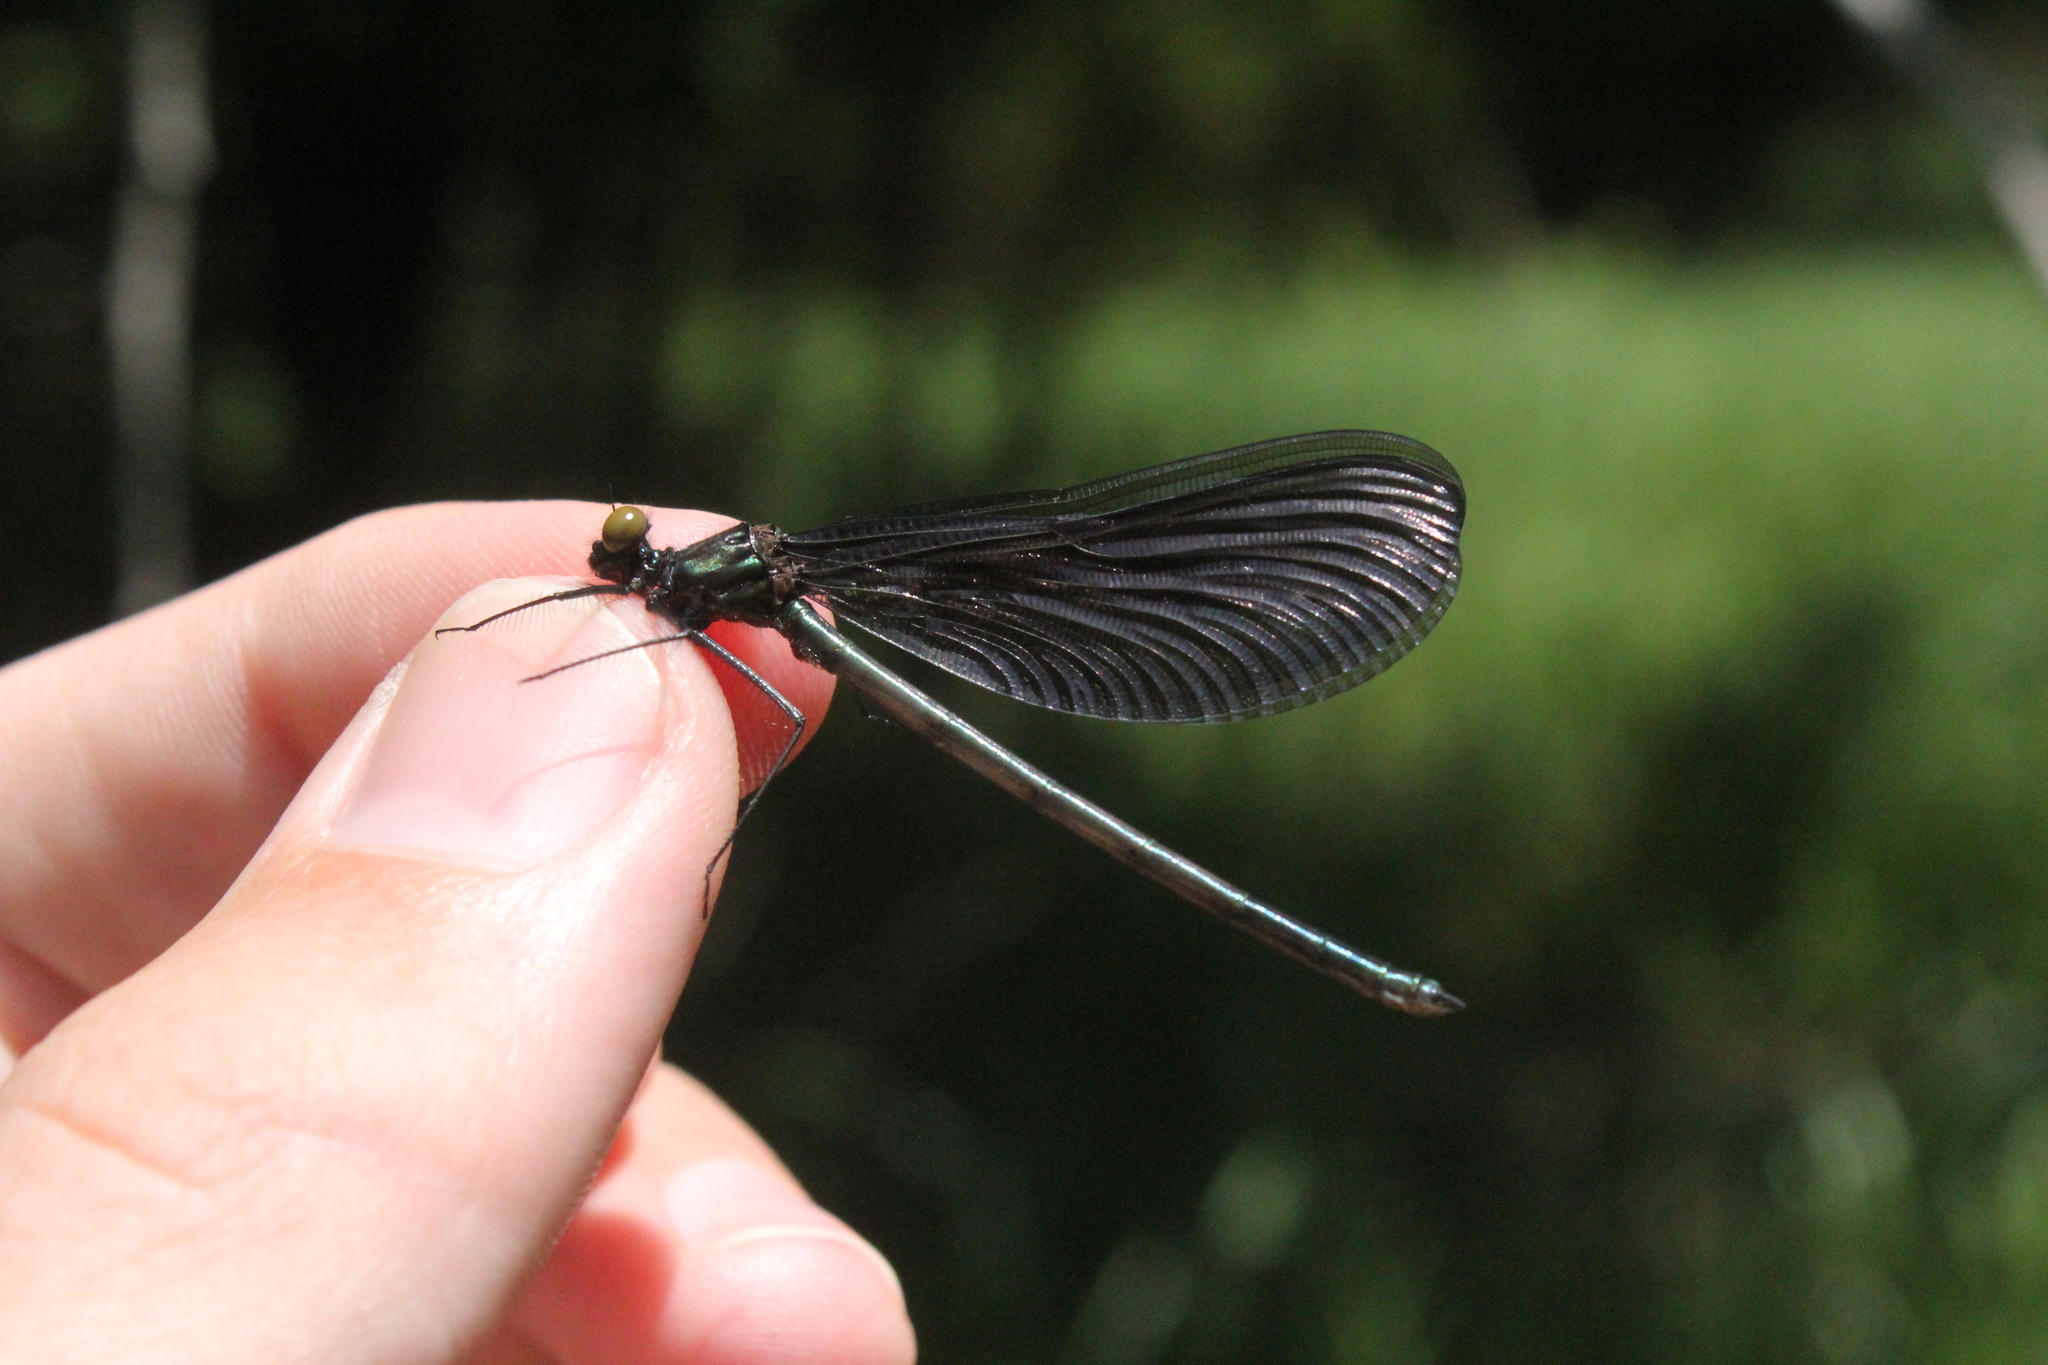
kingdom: Animalia
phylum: Arthropoda
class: Insecta
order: Odonata
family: Calopterygidae
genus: Calopteryx
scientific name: Calopteryx maculata
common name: Ebony jewelwing
